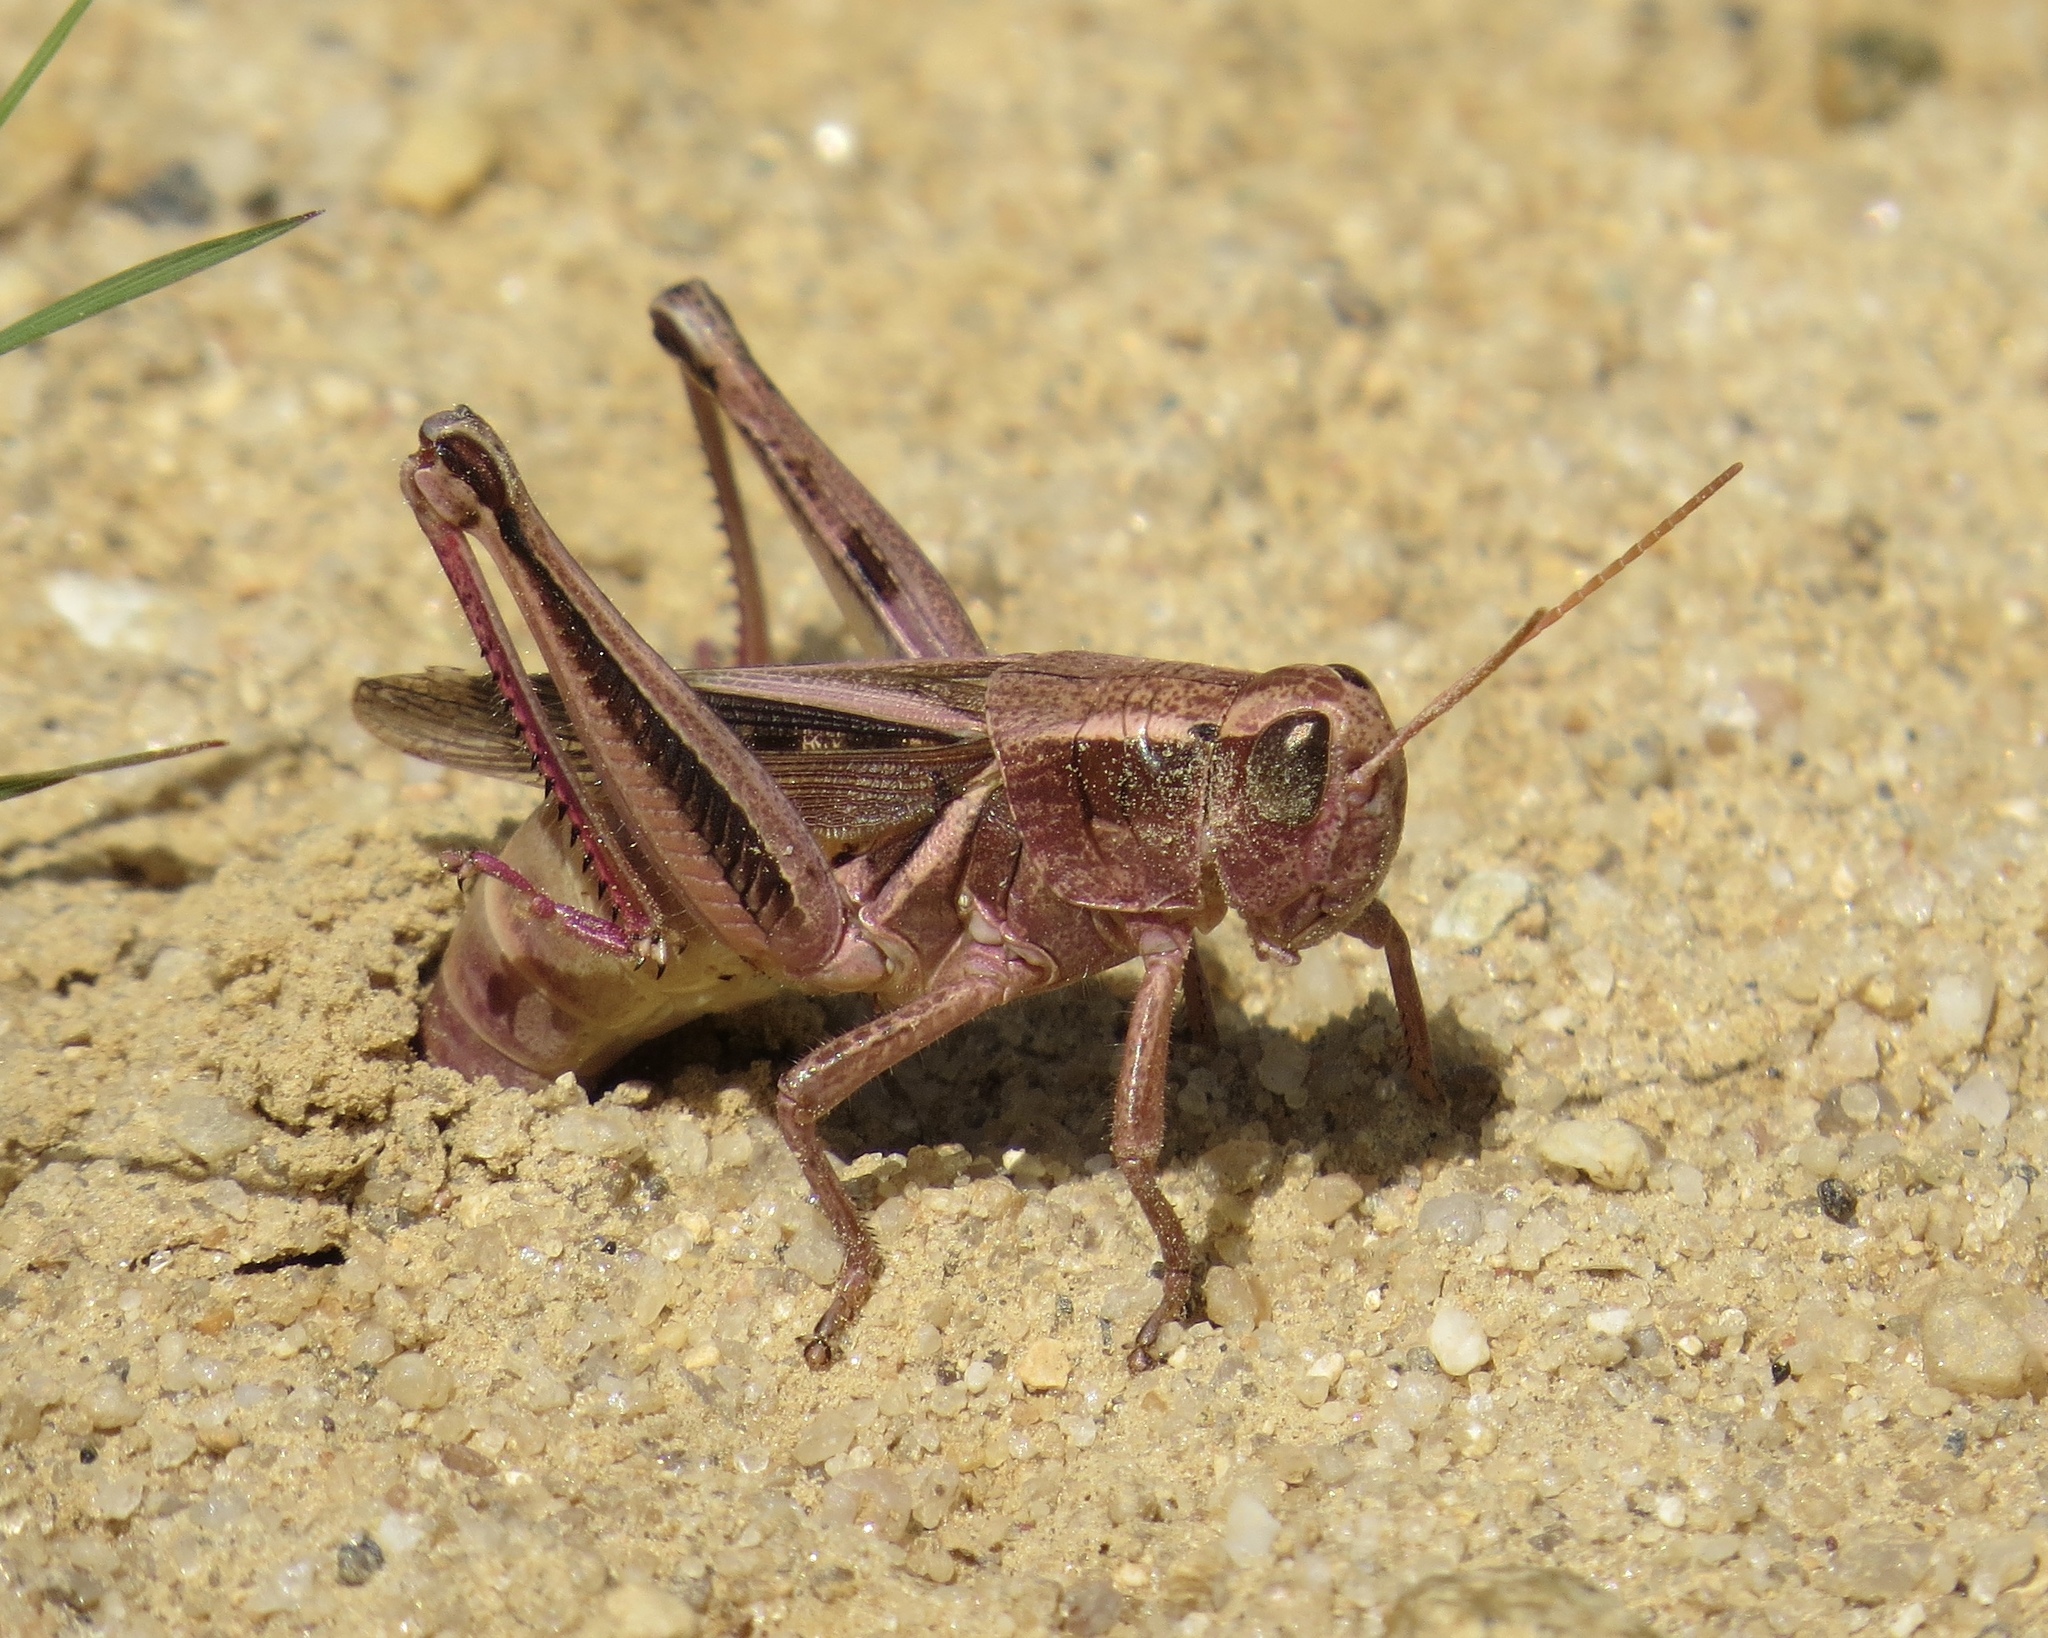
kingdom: Animalia
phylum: Arthropoda
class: Insecta
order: Orthoptera
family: Acrididae
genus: Melanoplus
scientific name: Melanoplus bivittatus
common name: Two-striped grasshopper
